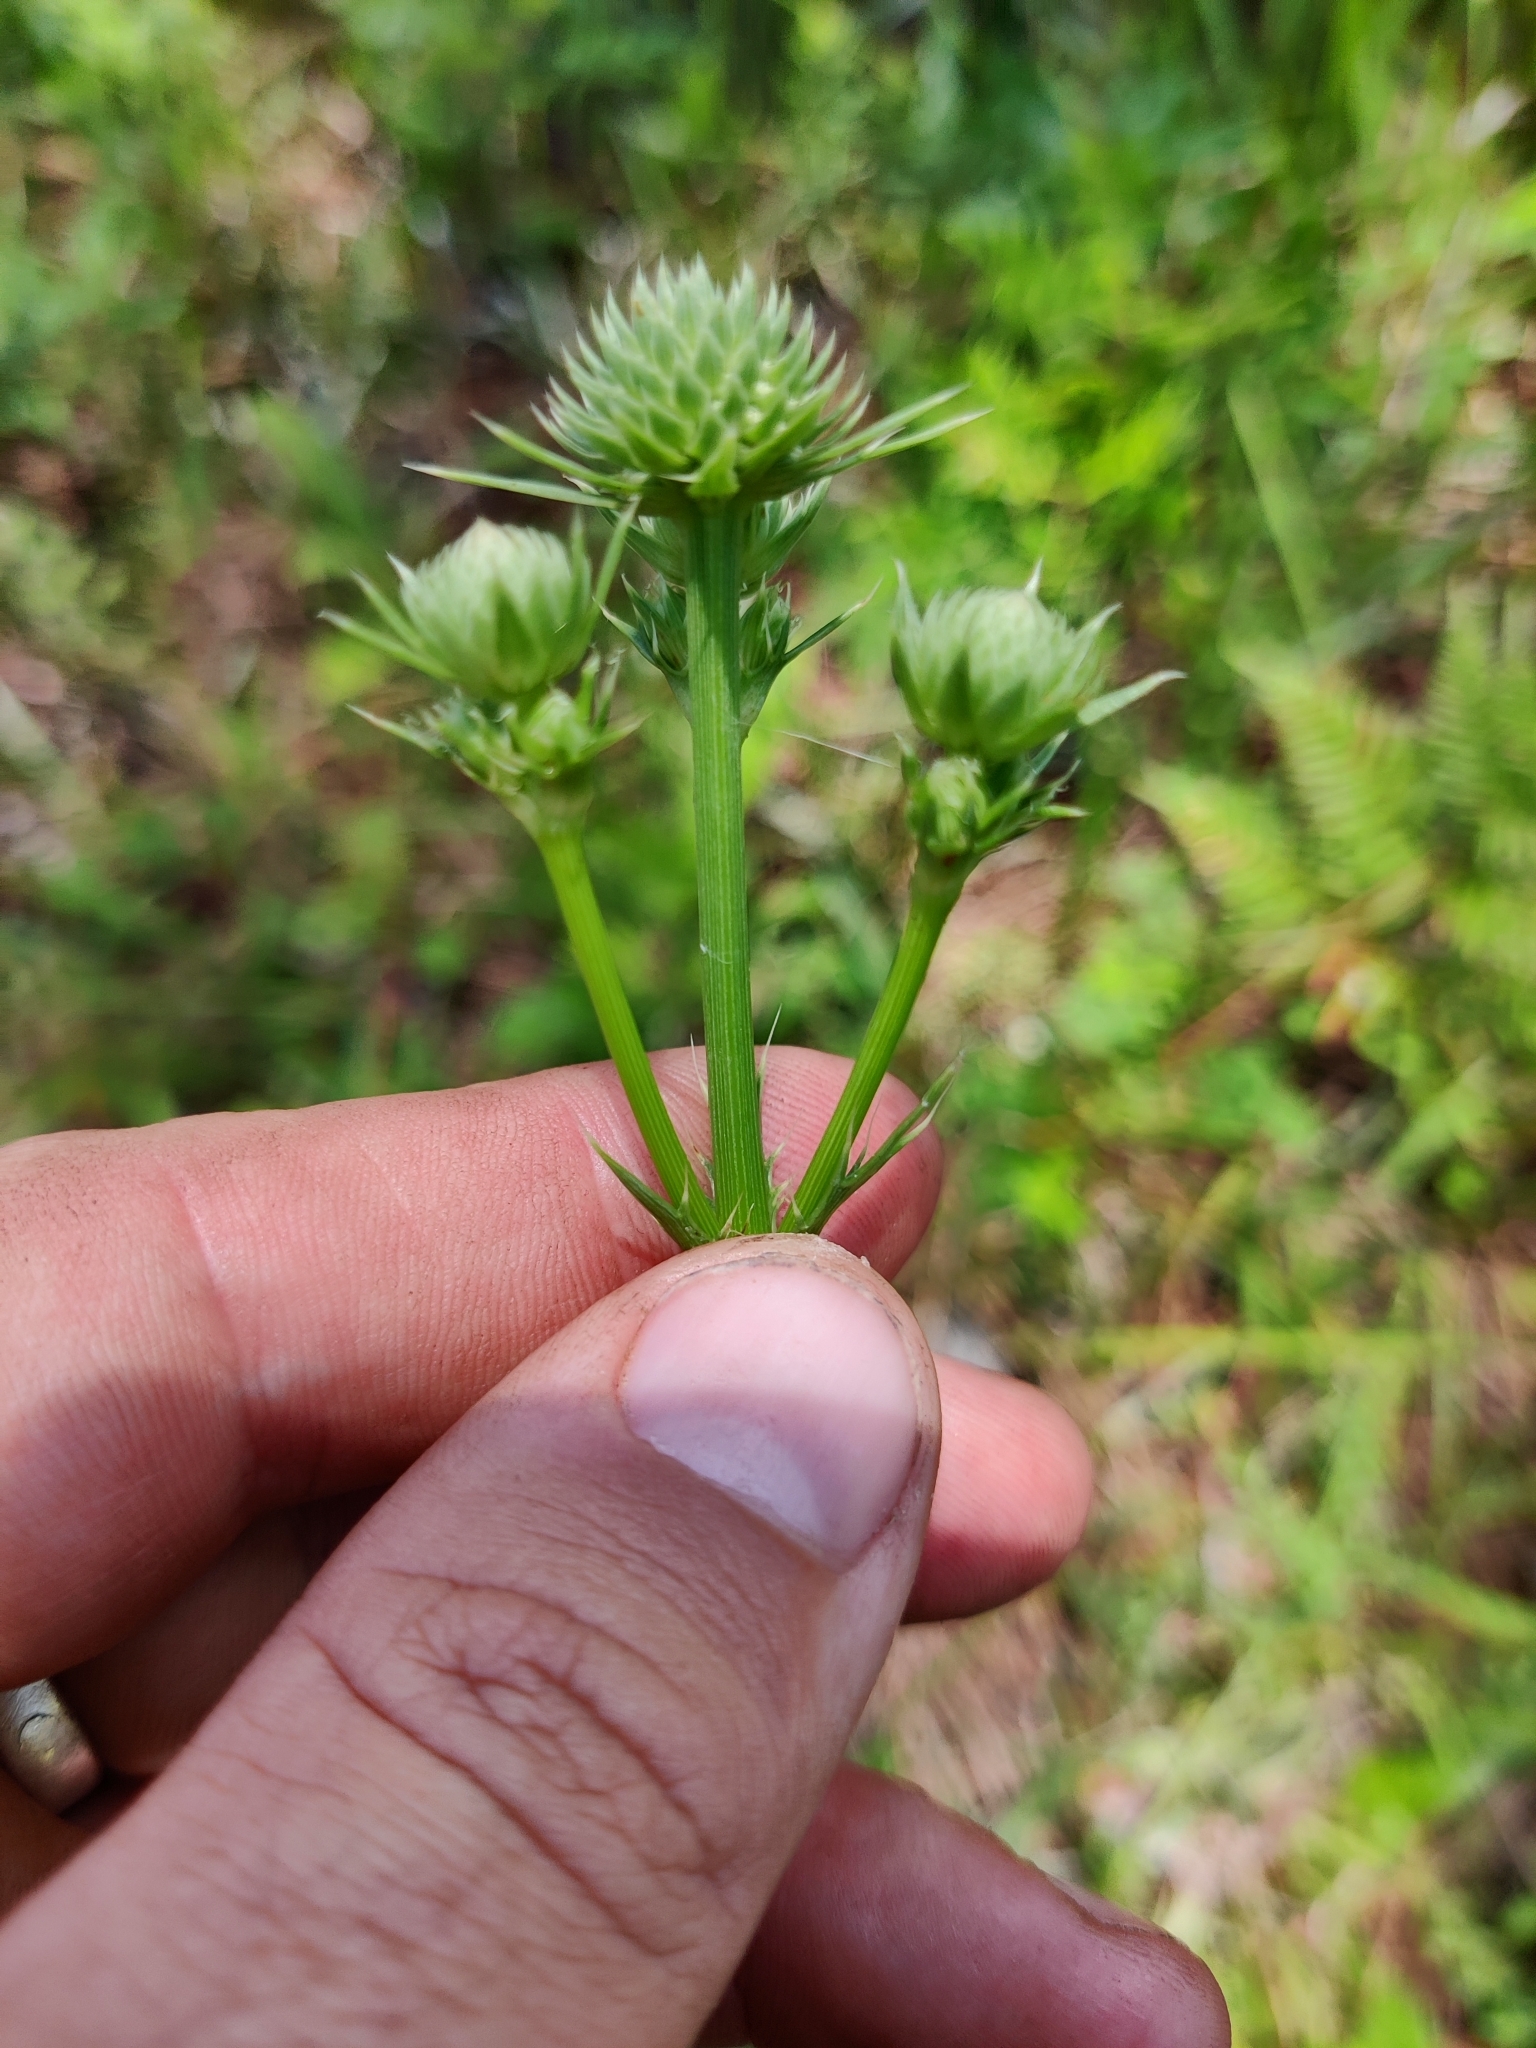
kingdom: Plantae
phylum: Tracheophyta
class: Magnoliopsida
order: Apiales
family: Apiaceae
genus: Eryngium
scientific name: Eryngium yuccifolium
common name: Button eryngo
